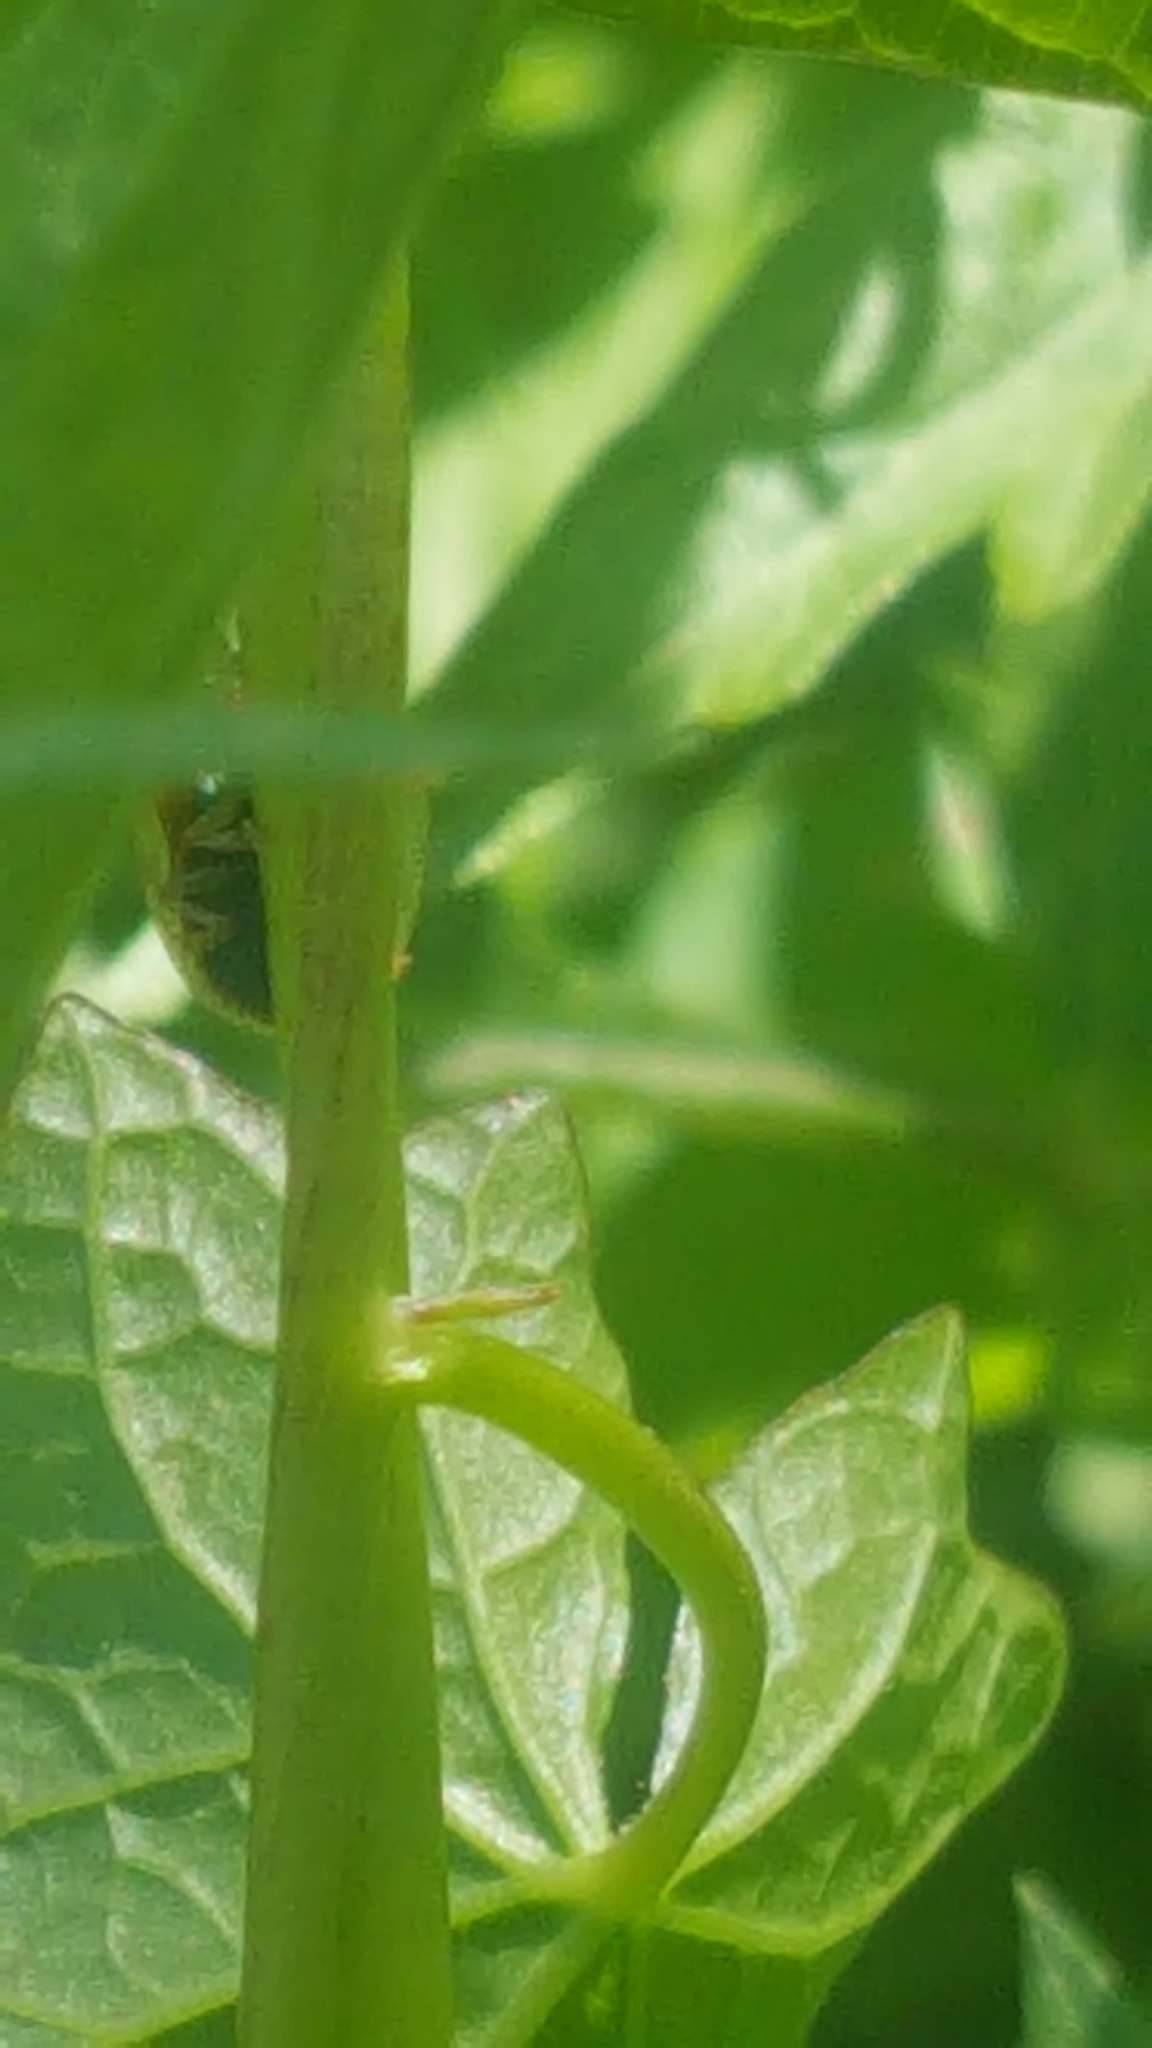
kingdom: Animalia
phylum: Arthropoda
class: Insecta
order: Coleoptera
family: Chrysomelidae
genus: Charidotella
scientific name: Charidotella sexpunctata
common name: Golden tortoise beetle
